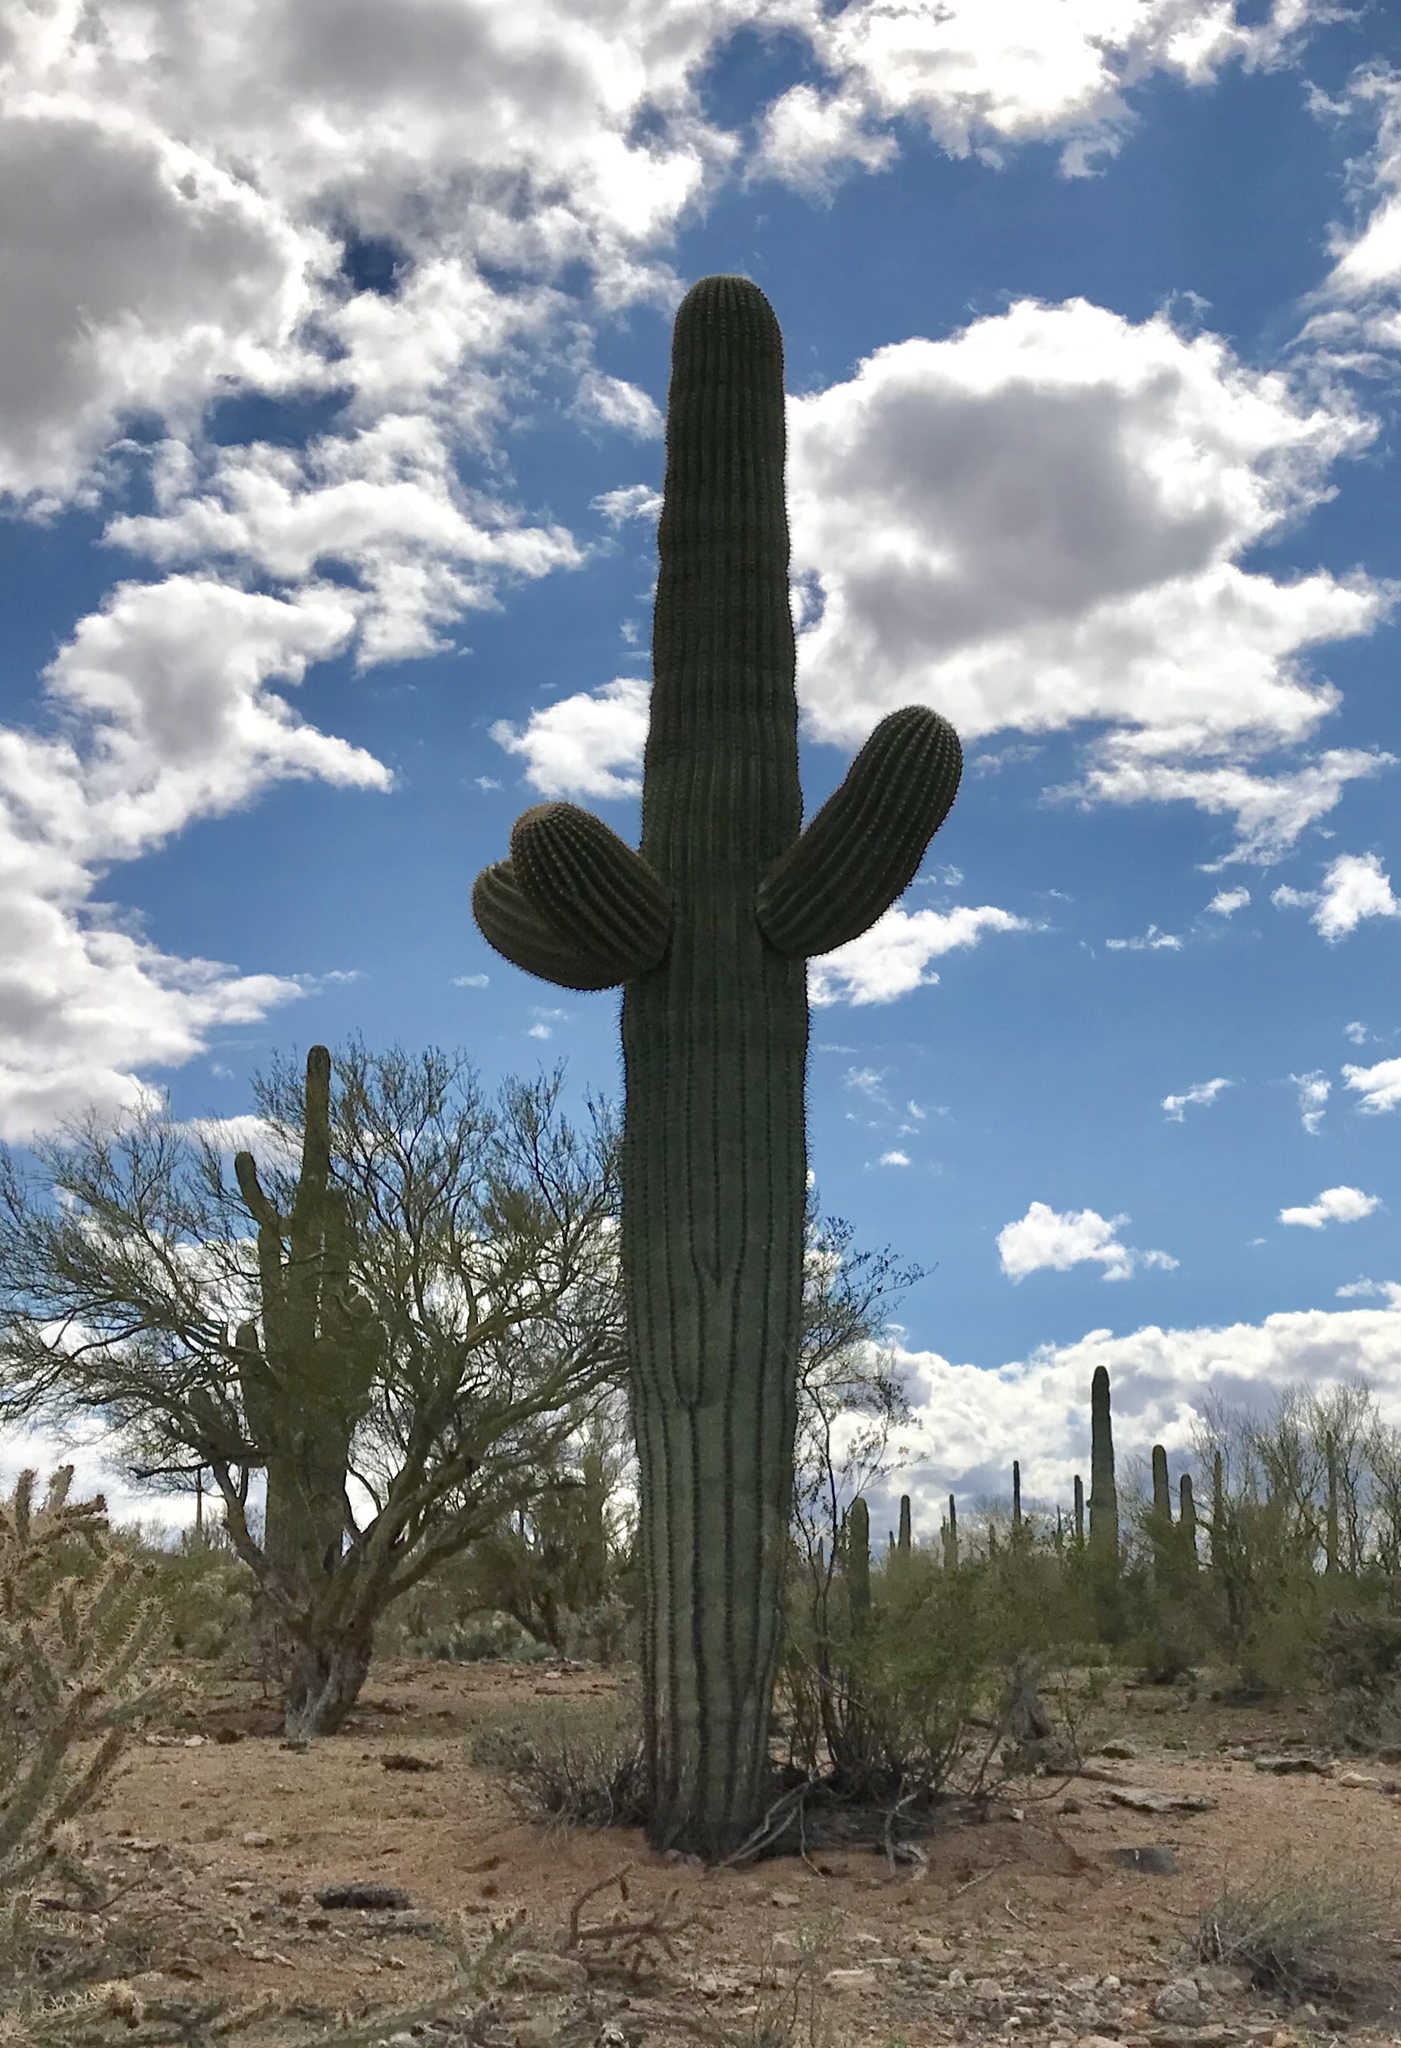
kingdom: Plantae
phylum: Tracheophyta
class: Magnoliopsida
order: Caryophyllales
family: Cactaceae
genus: Carnegiea
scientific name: Carnegiea gigantea
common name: Saguaro
